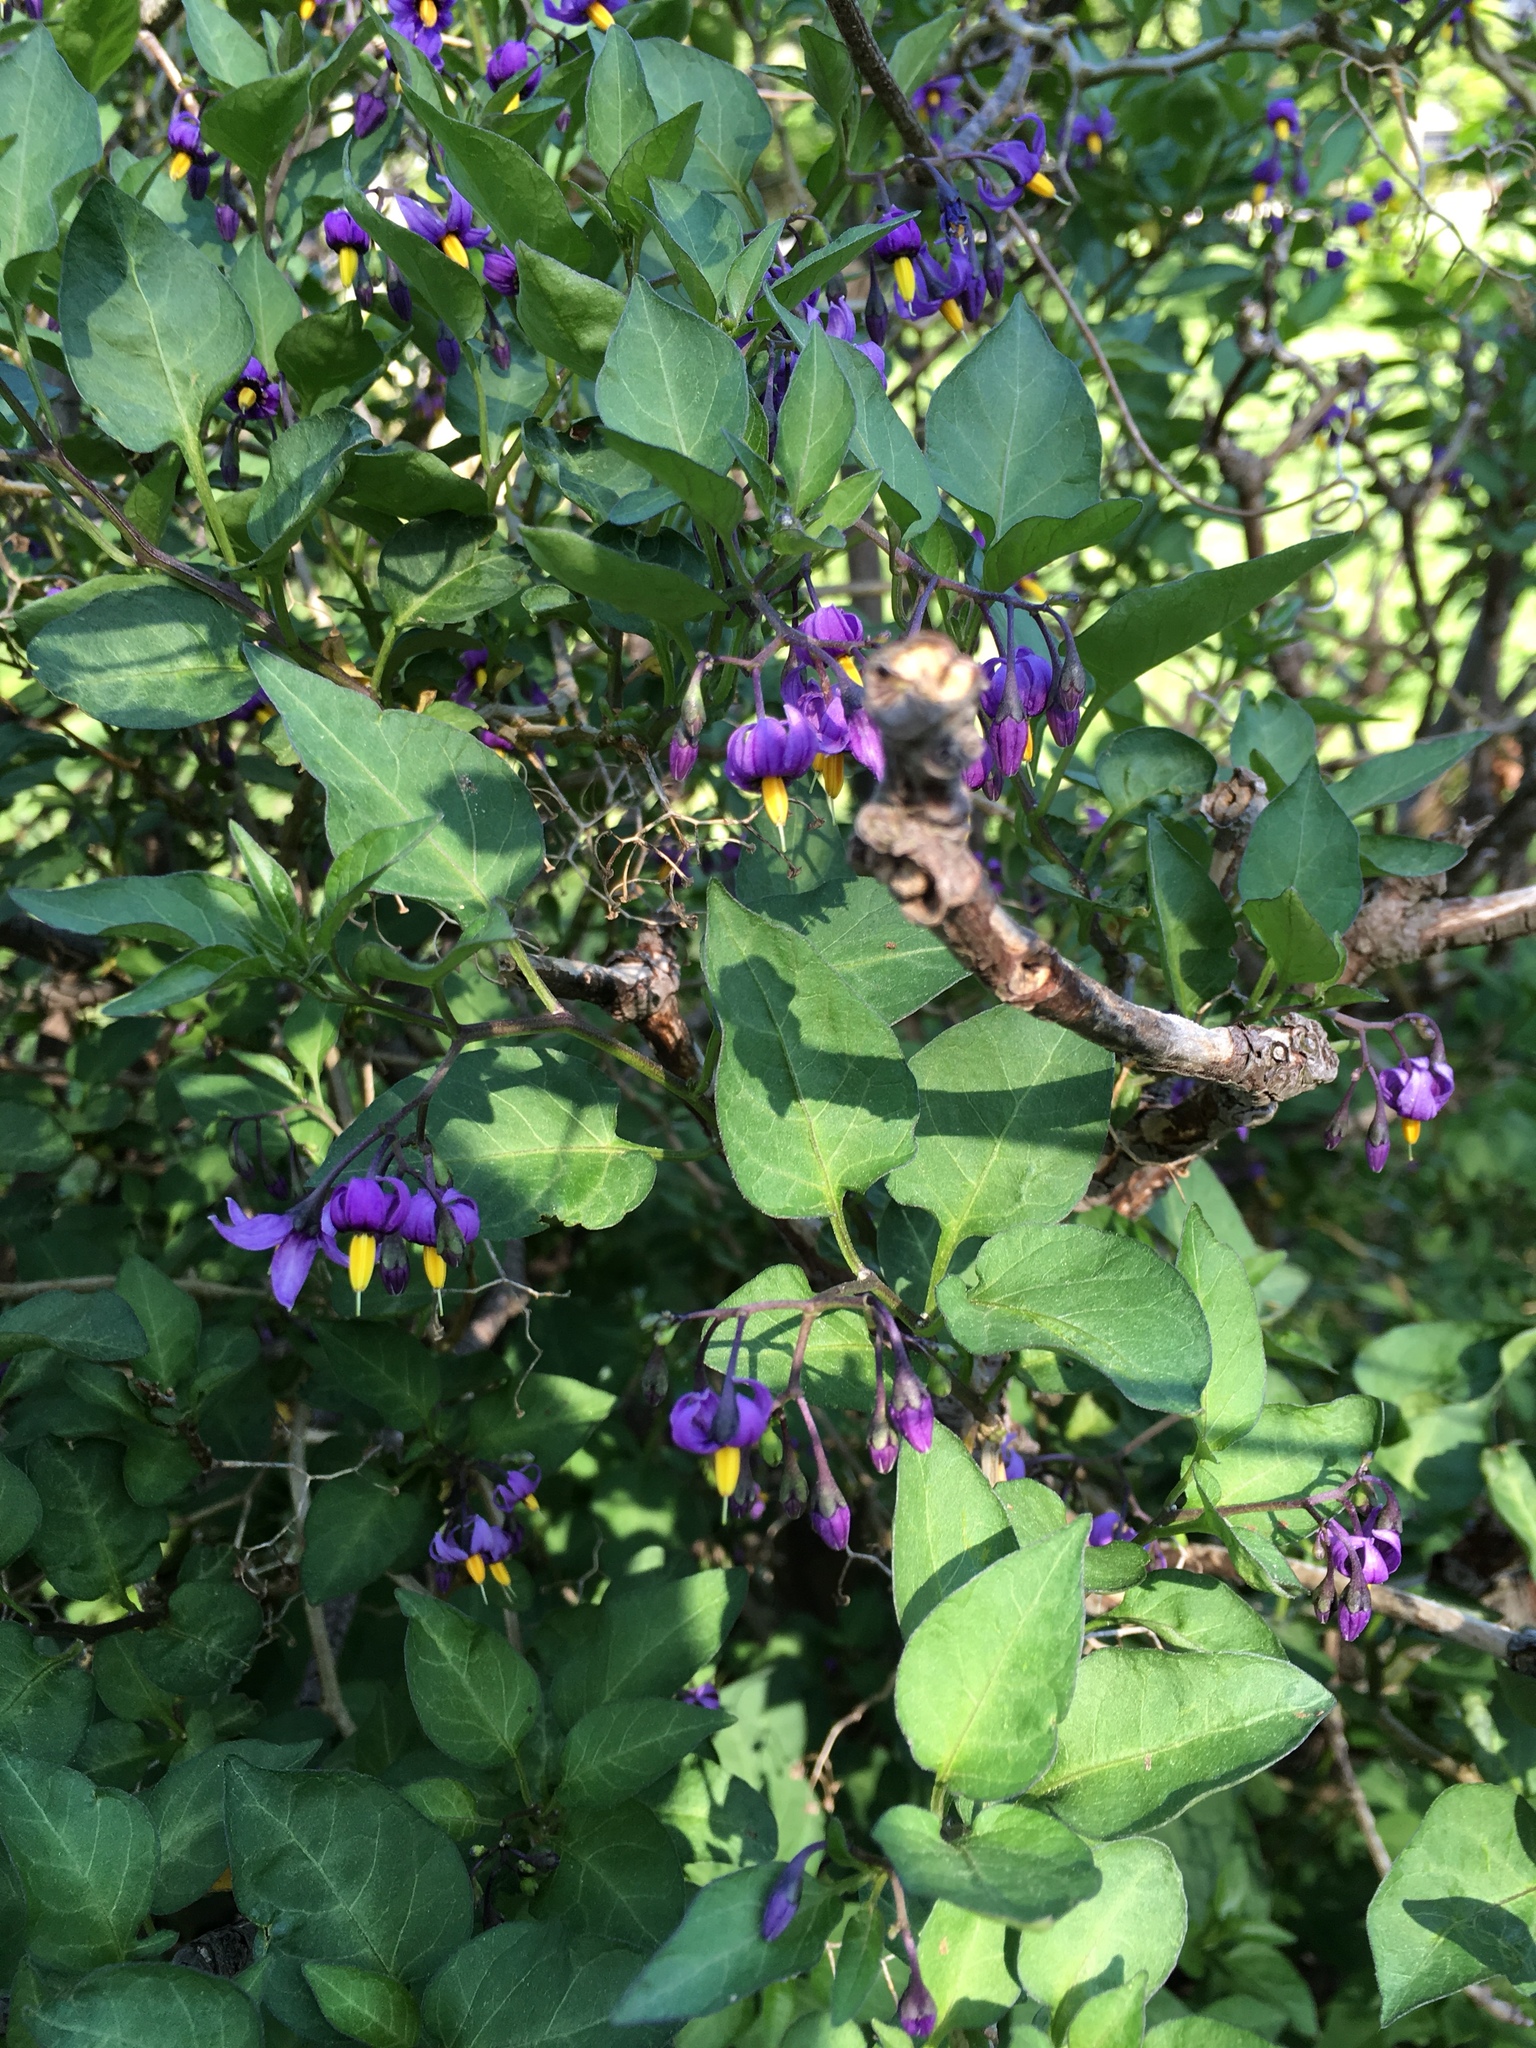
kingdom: Plantae
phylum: Tracheophyta
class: Magnoliopsida
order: Solanales
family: Solanaceae
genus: Solanum
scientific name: Solanum dulcamara
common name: Climbing nightshade
